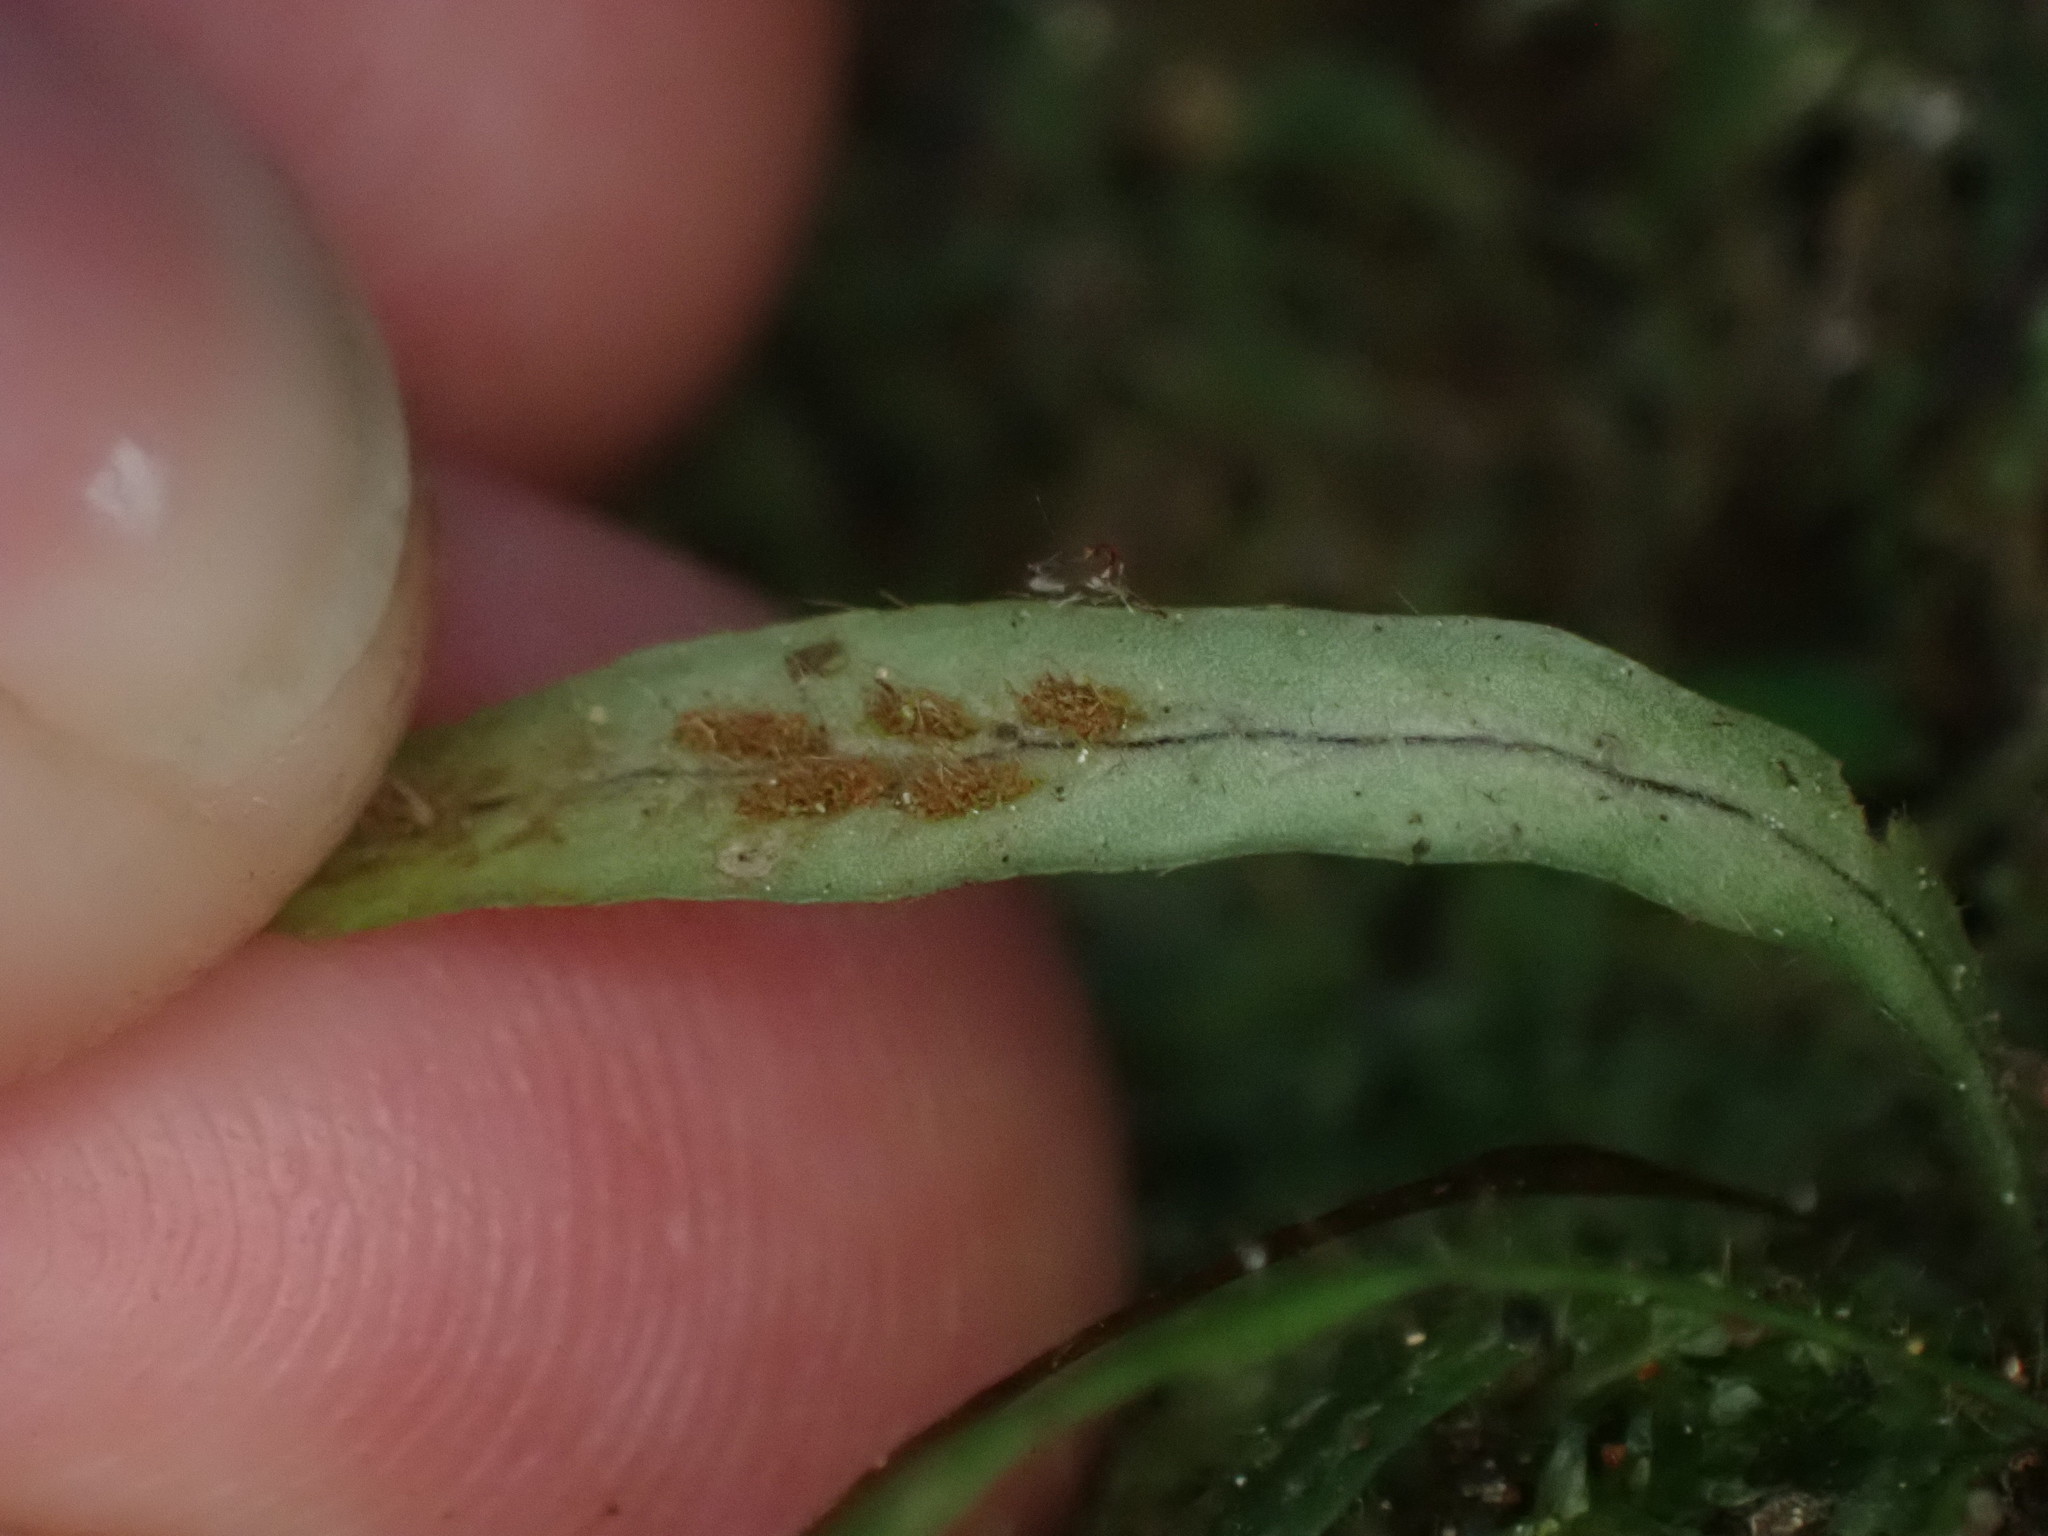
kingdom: Plantae
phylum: Tracheophyta
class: Polypodiopsida
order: Polypodiales
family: Polypodiaceae
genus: Notogrammitis
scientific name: Notogrammitis ciliata
